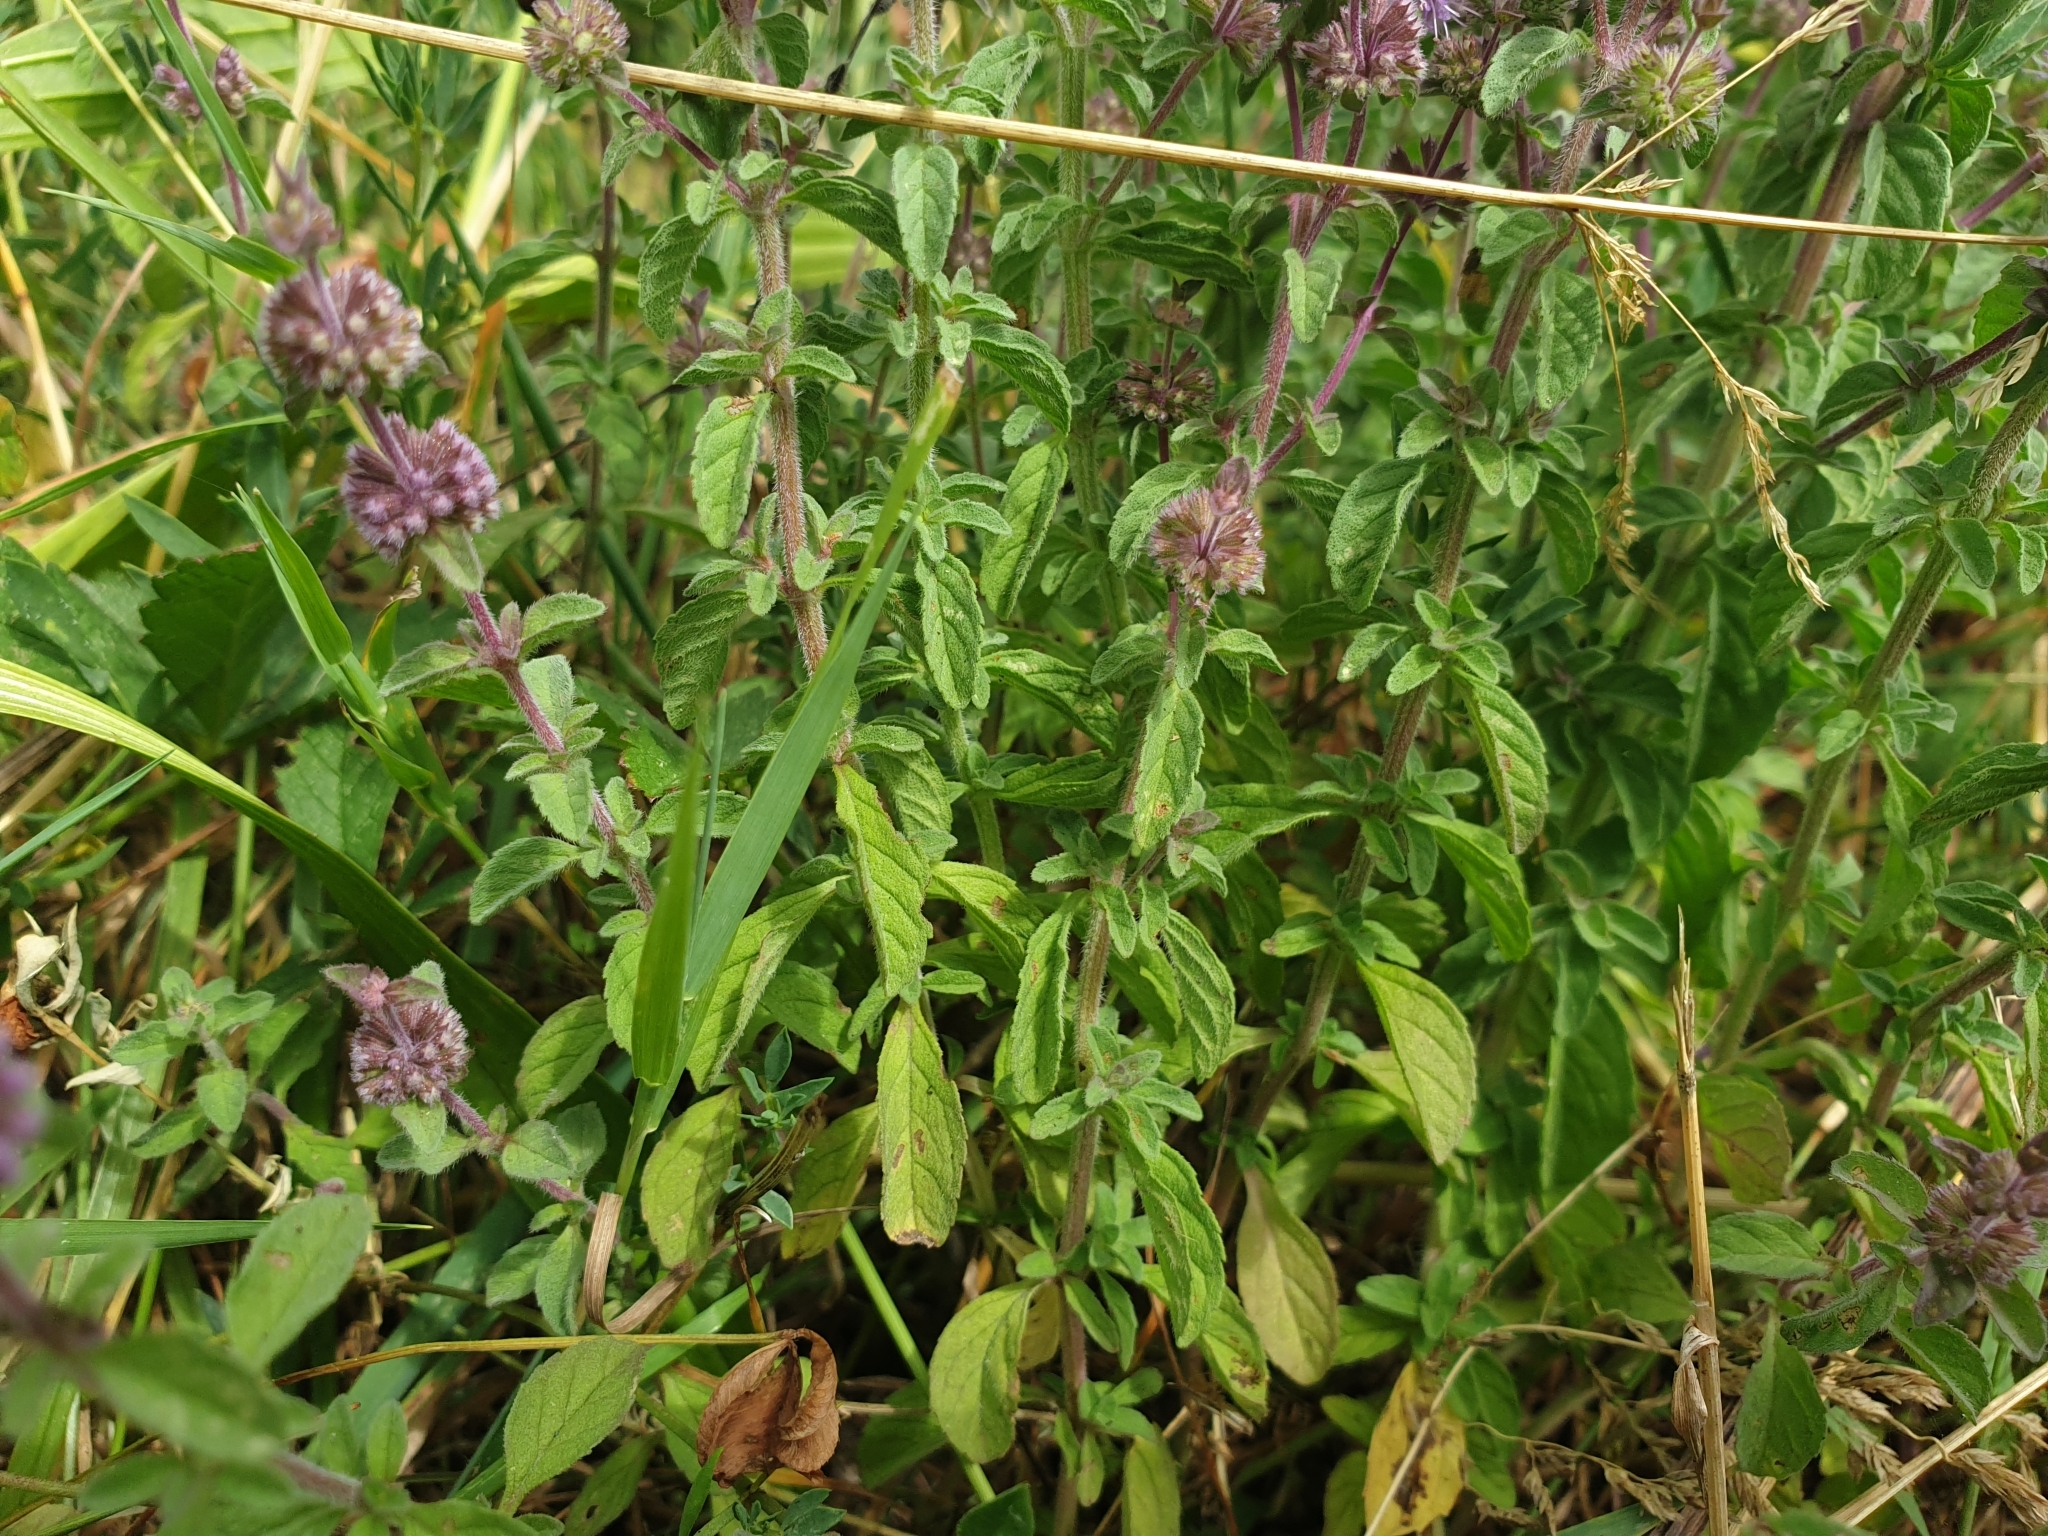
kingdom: Plantae
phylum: Tracheophyta
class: Magnoliopsida
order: Lamiales
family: Lamiaceae
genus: Mentha
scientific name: Mentha pulegium
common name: Pennyroyal
